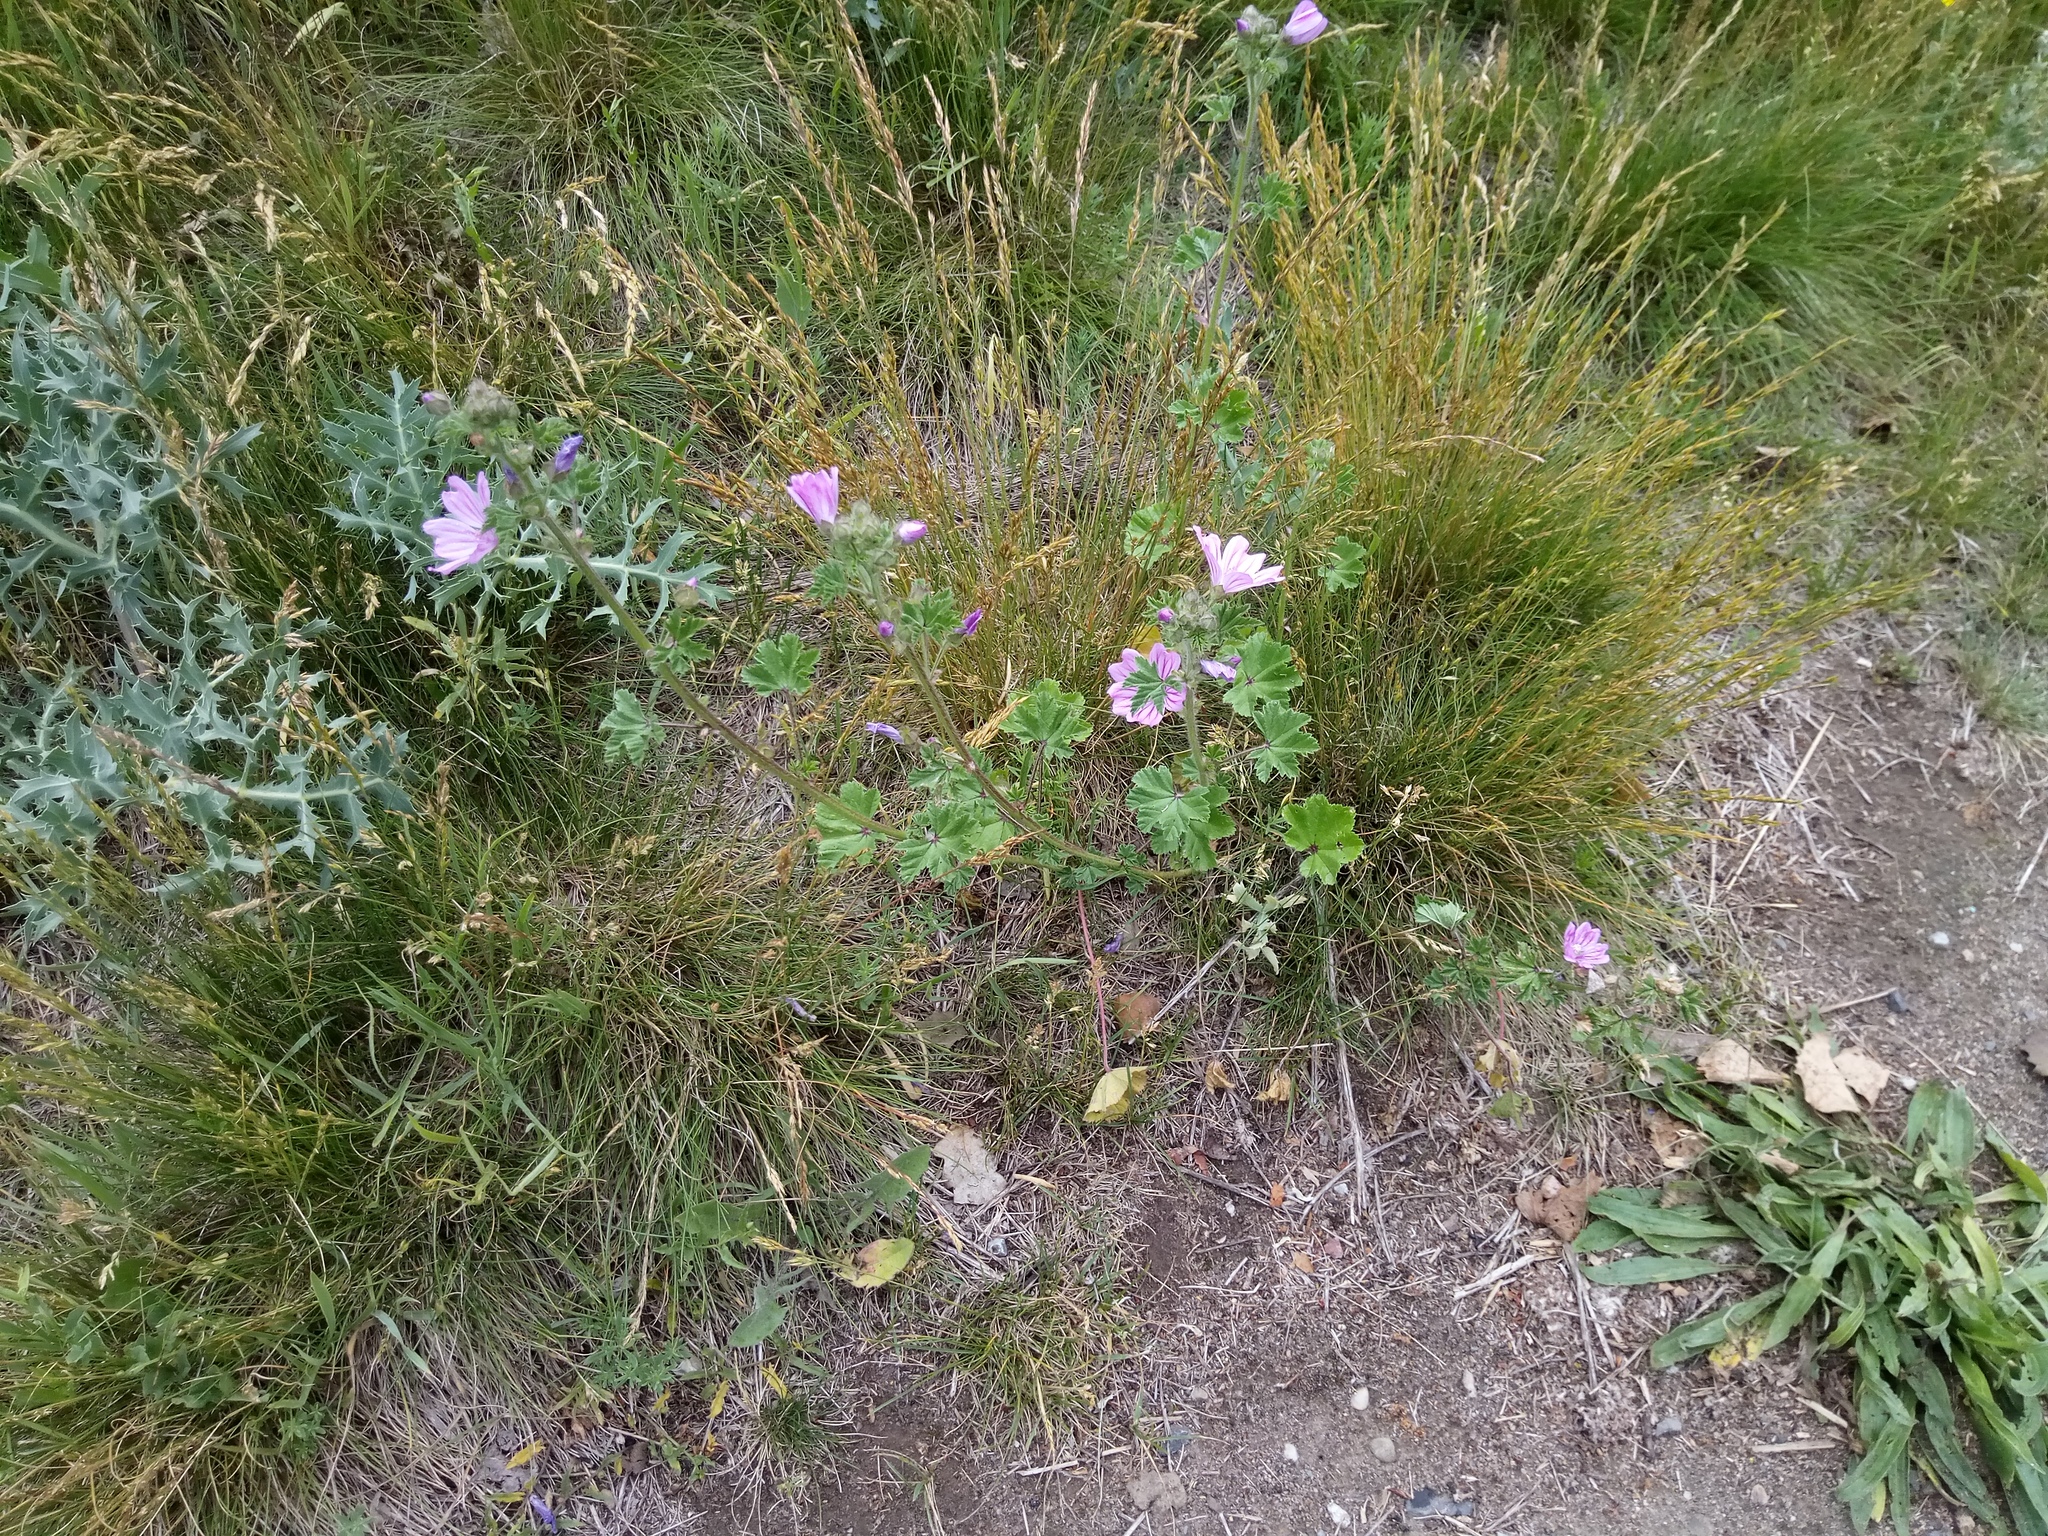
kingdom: Plantae
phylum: Tracheophyta
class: Magnoliopsida
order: Malvales
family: Malvaceae
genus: Malva
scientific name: Malva sylvestris
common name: Common mallow
